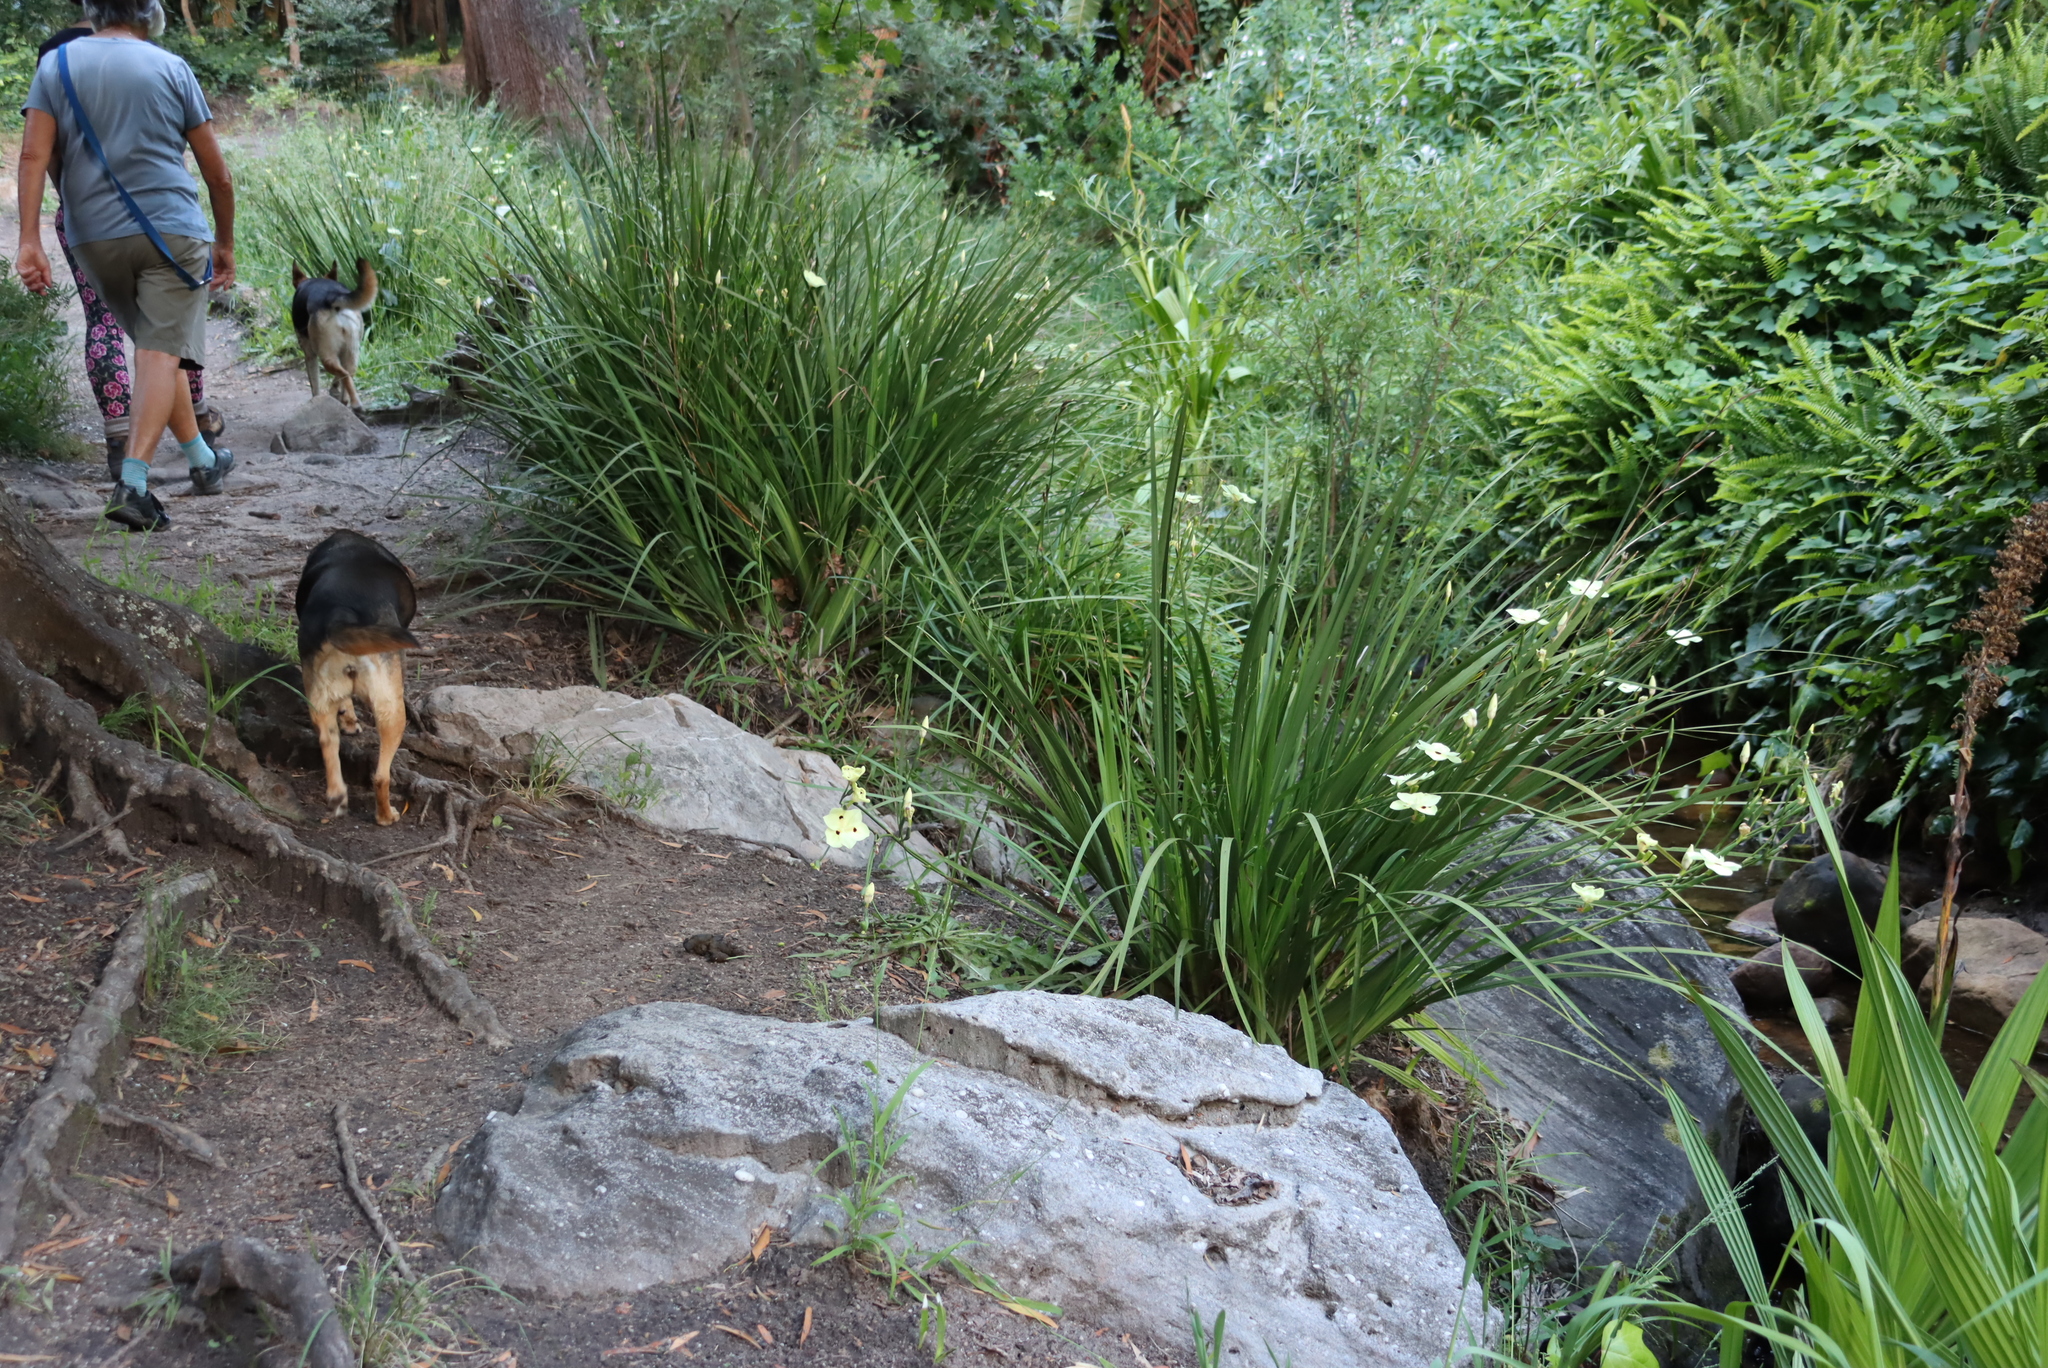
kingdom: Plantae
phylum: Tracheophyta
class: Liliopsida
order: Asparagales
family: Iridaceae
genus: Dietes
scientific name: Dietes bicolor
